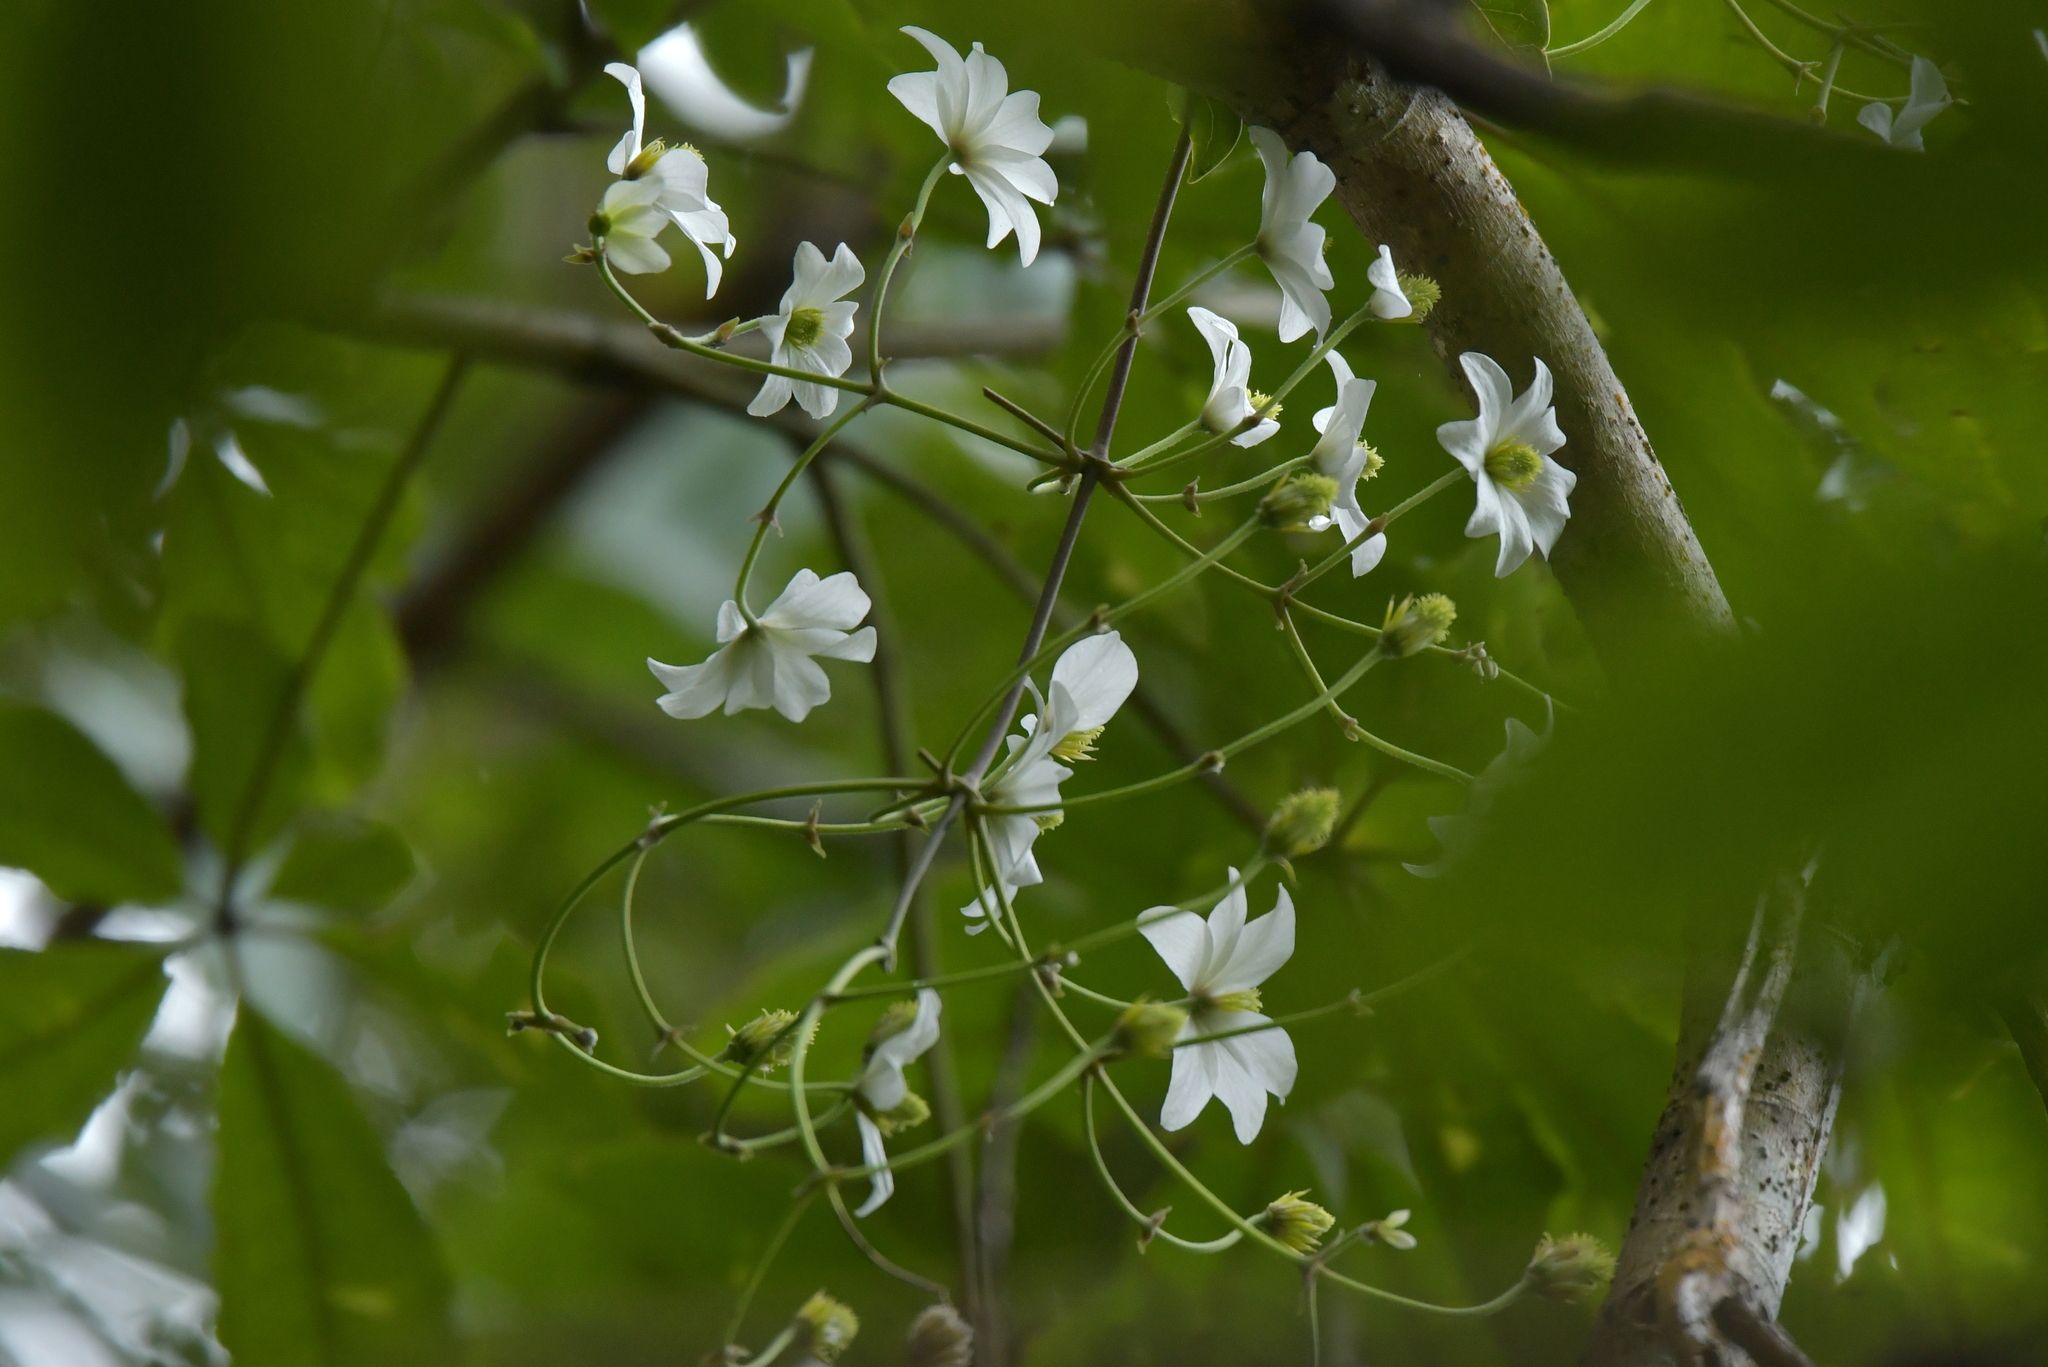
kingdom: Plantae
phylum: Tracheophyta
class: Magnoliopsida
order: Ranunculales
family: Ranunculaceae
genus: Clematis
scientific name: Clematis paniculata
